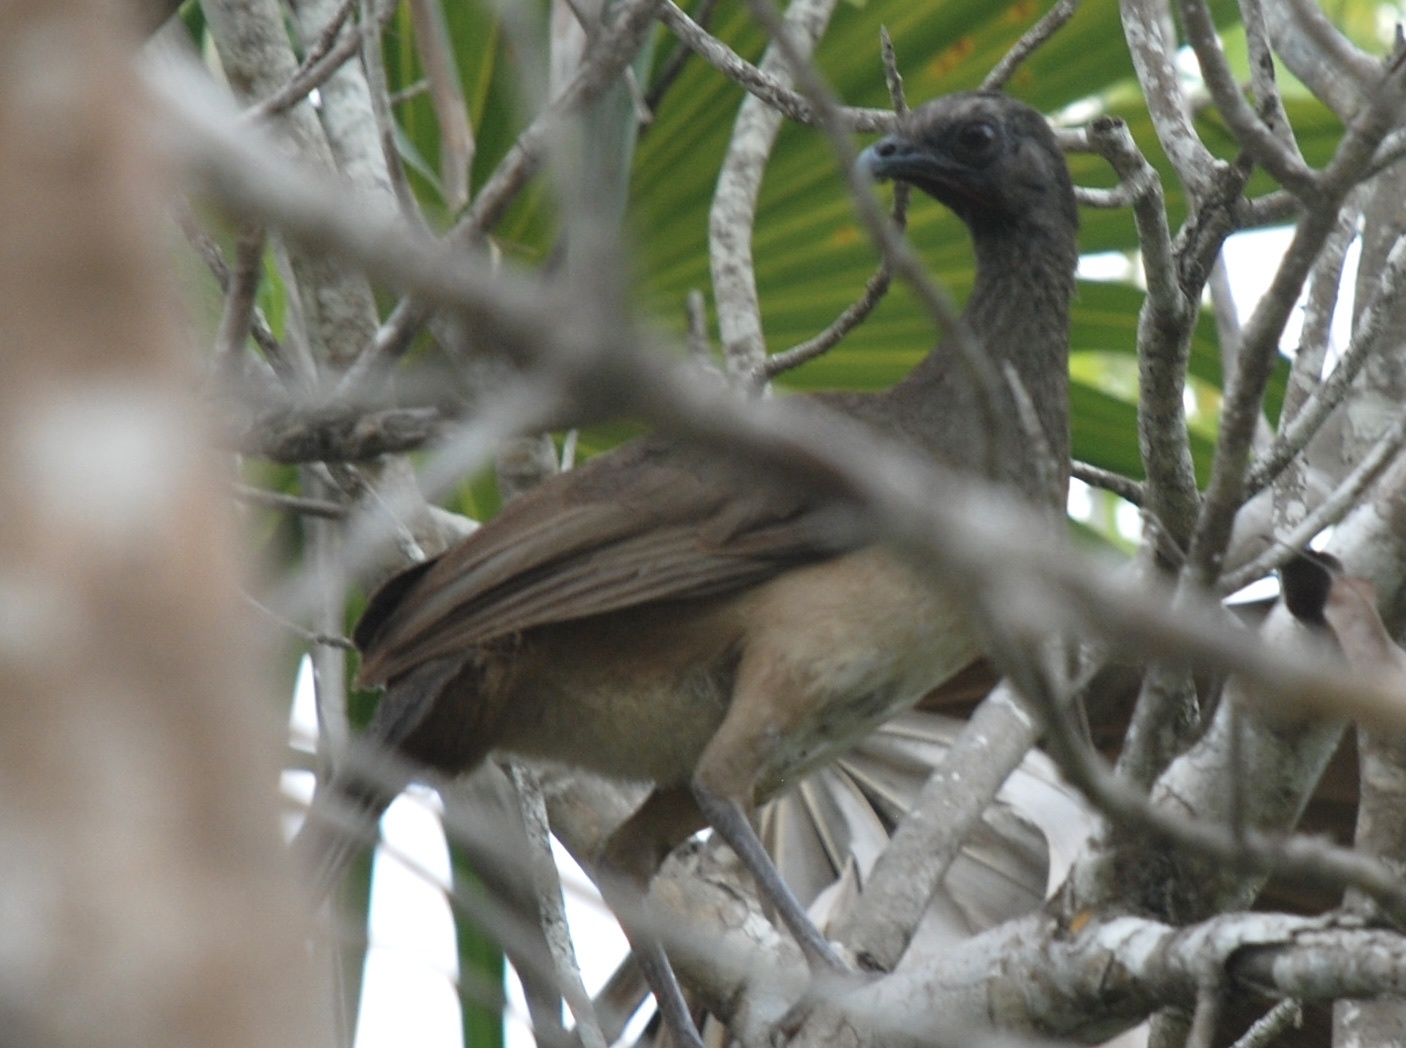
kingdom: Animalia
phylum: Chordata
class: Aves
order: Galliformes
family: Cracidae
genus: Ortalis
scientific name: Ortalis vetula
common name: Plain chachalaca
